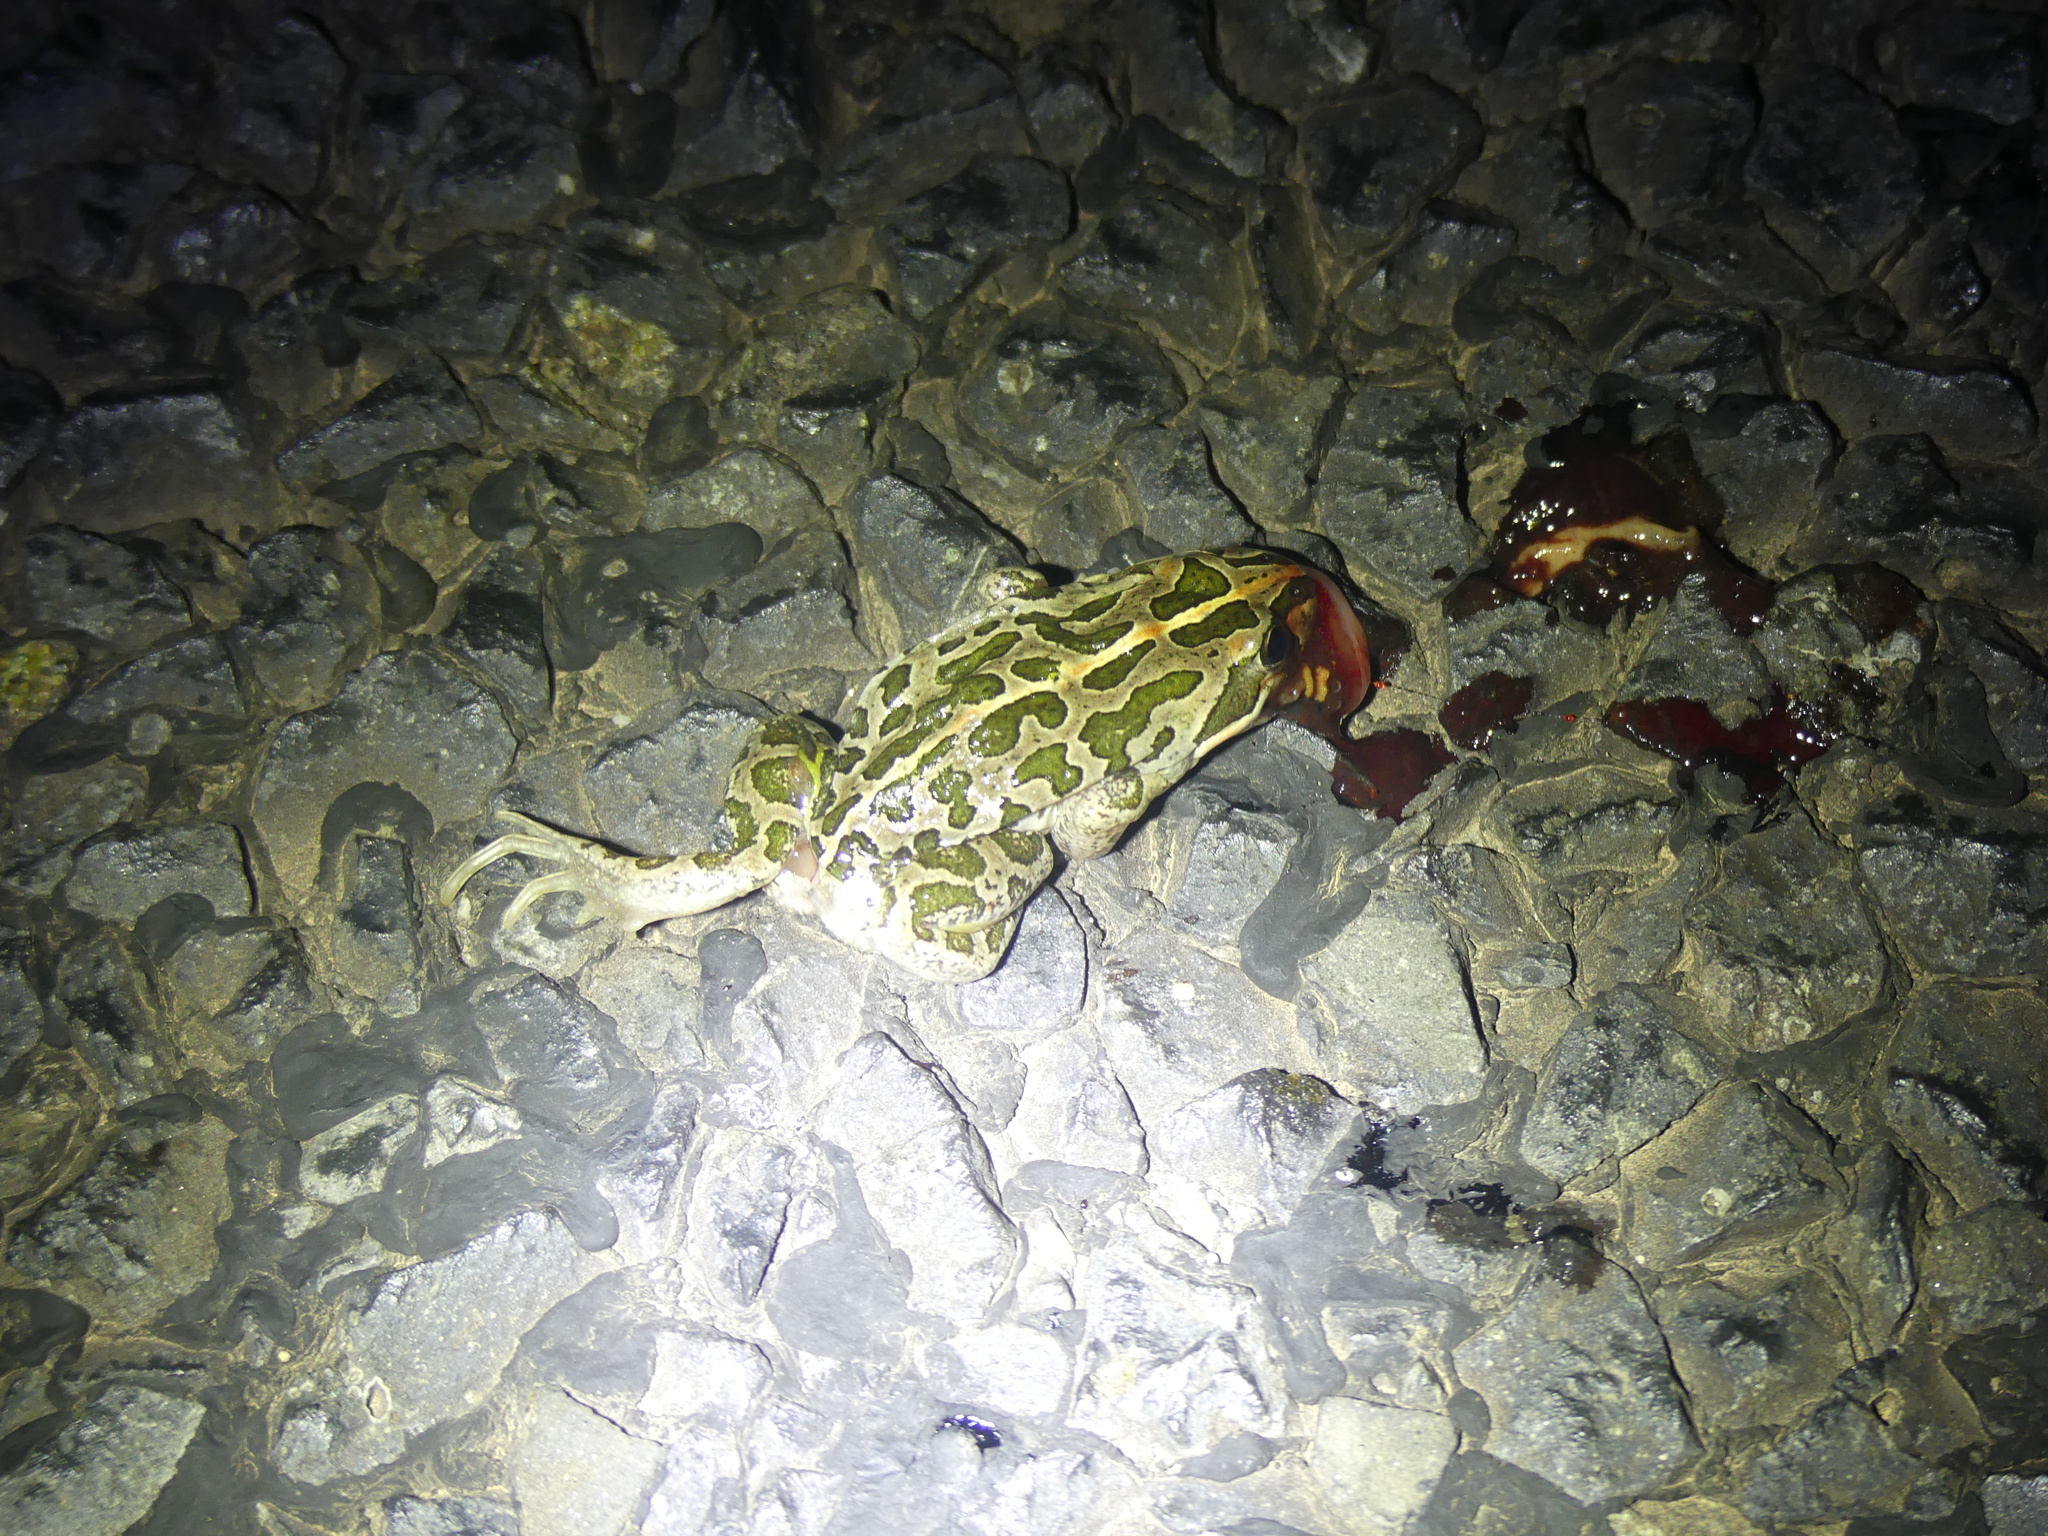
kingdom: Animalia
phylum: Chordata
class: Amphibia
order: Anura
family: Limnodynastidae
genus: Limnodynastes
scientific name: Limnodynastes tasmaniensis
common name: Spotted marsh frog
